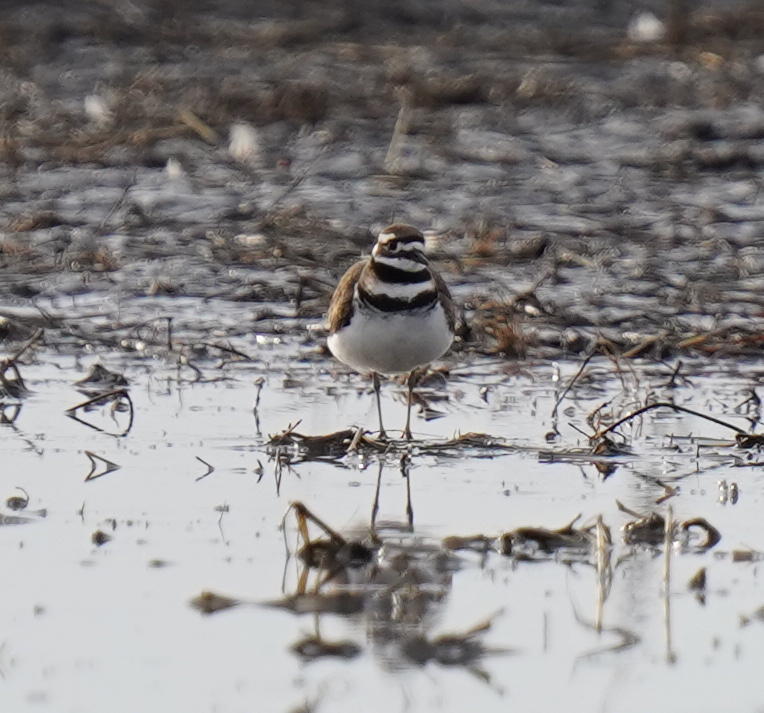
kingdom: Animalia
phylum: Chordata
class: Aves
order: Charadriiformes
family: Charadriidae
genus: Charadrius
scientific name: Charadrius vociferus
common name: Killdeer
